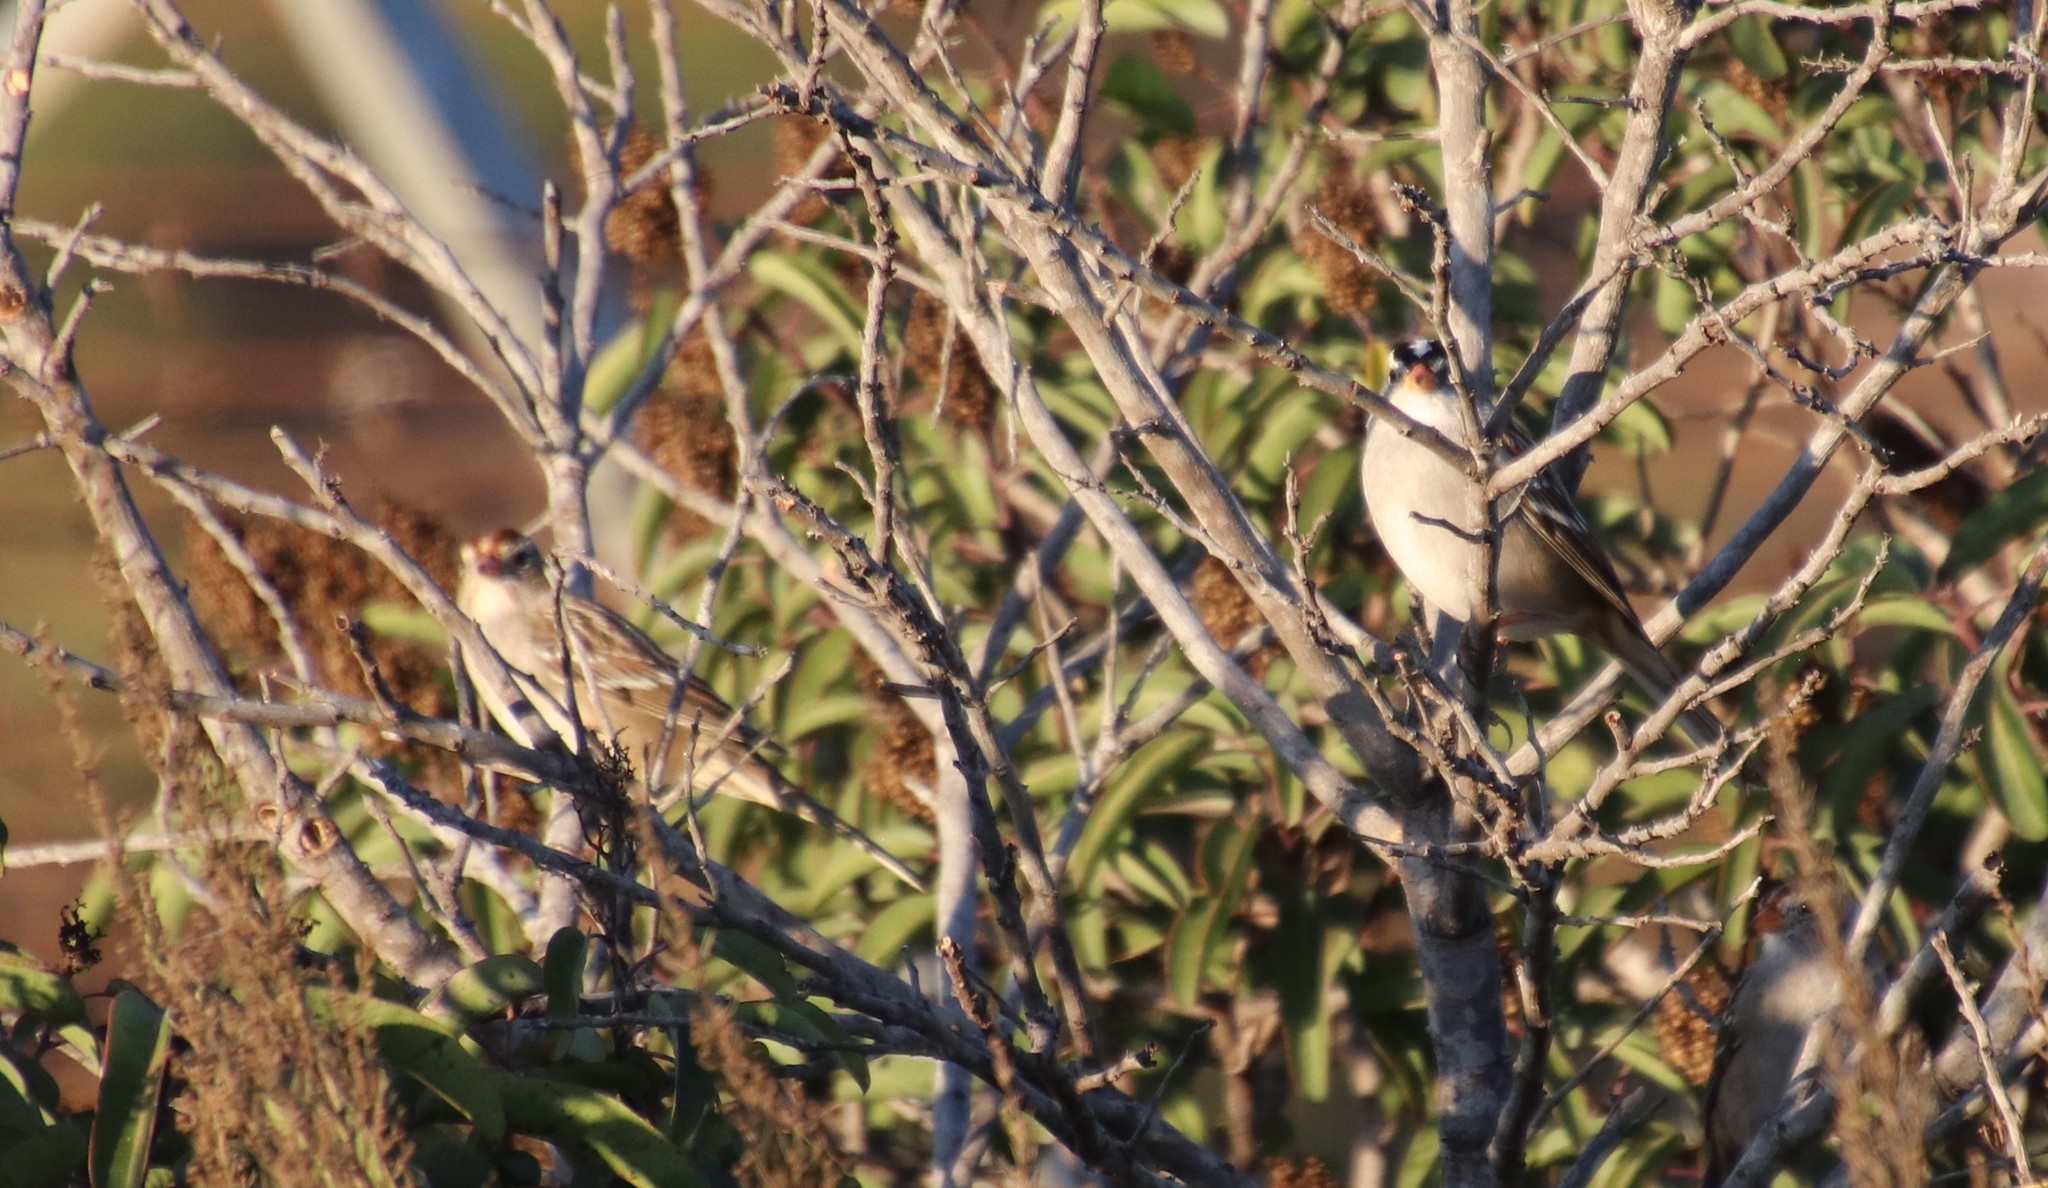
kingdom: Animalia
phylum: Chordata
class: Aves
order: Passeriformes
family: Passerellidae
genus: Zonotrichia
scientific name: Zonotrichia leucophrys
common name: White-crowned sparrow
